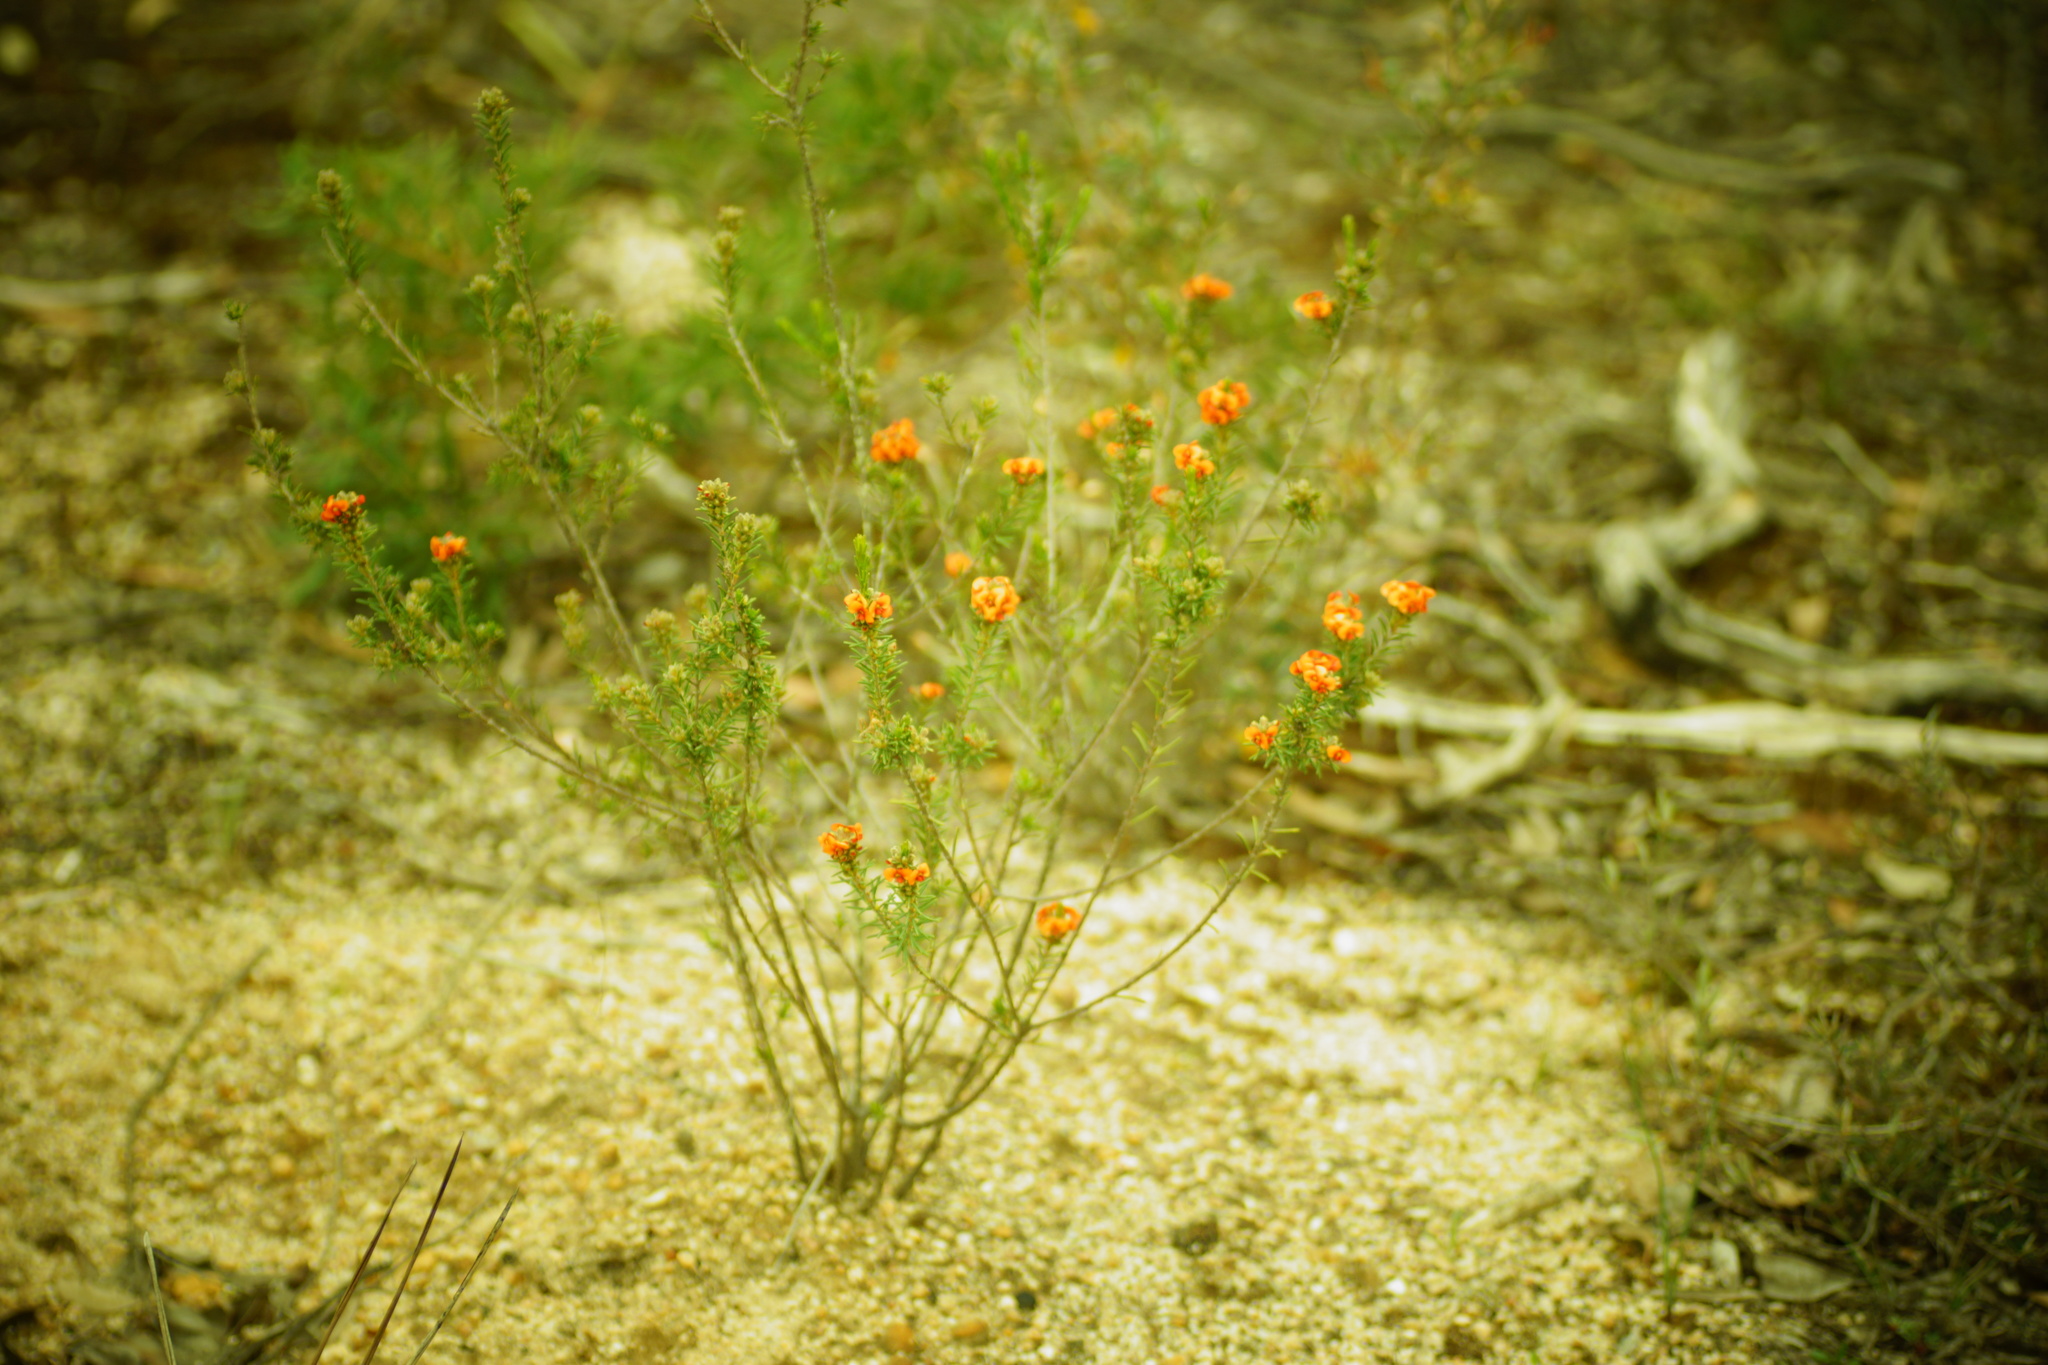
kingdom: Plantae
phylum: Tracheophyta
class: Magnoliopsida
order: Fabales
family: Fabaceae
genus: Dillwynia
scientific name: Dillwynia sericea
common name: Showy parrot-pea
